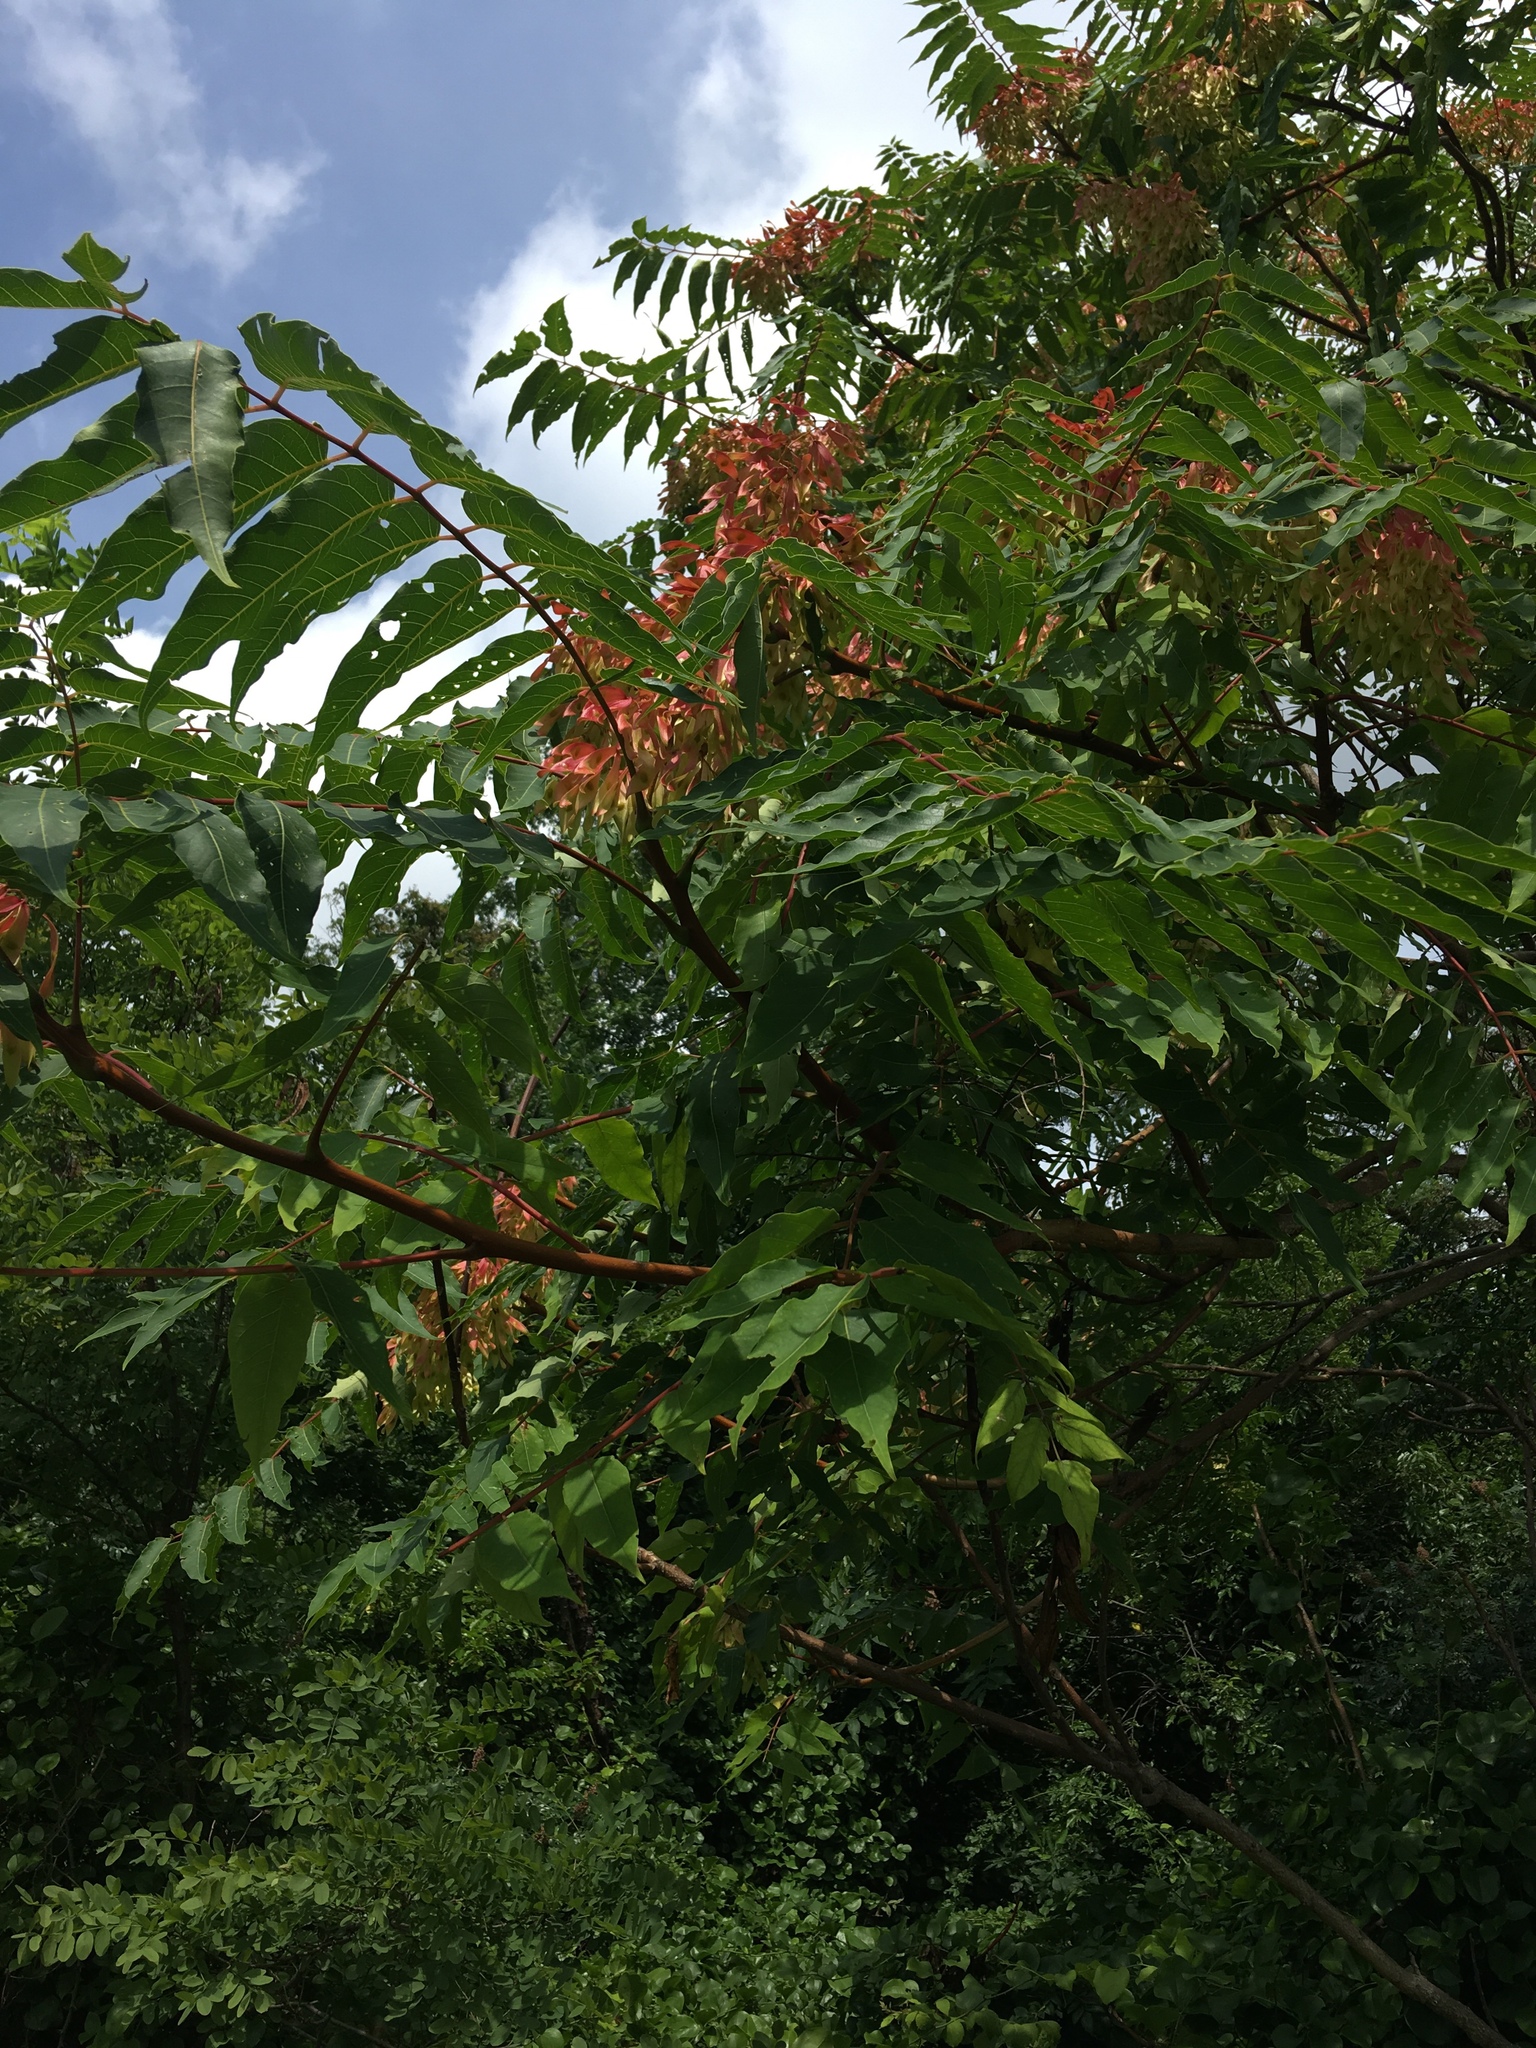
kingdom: Plantae
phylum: Tracheophyta
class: Magnoliopsida
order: Sapindales
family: Simaroubaceae
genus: Ailanthus
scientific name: Ailanthus altissima
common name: Tree-of-heaven
